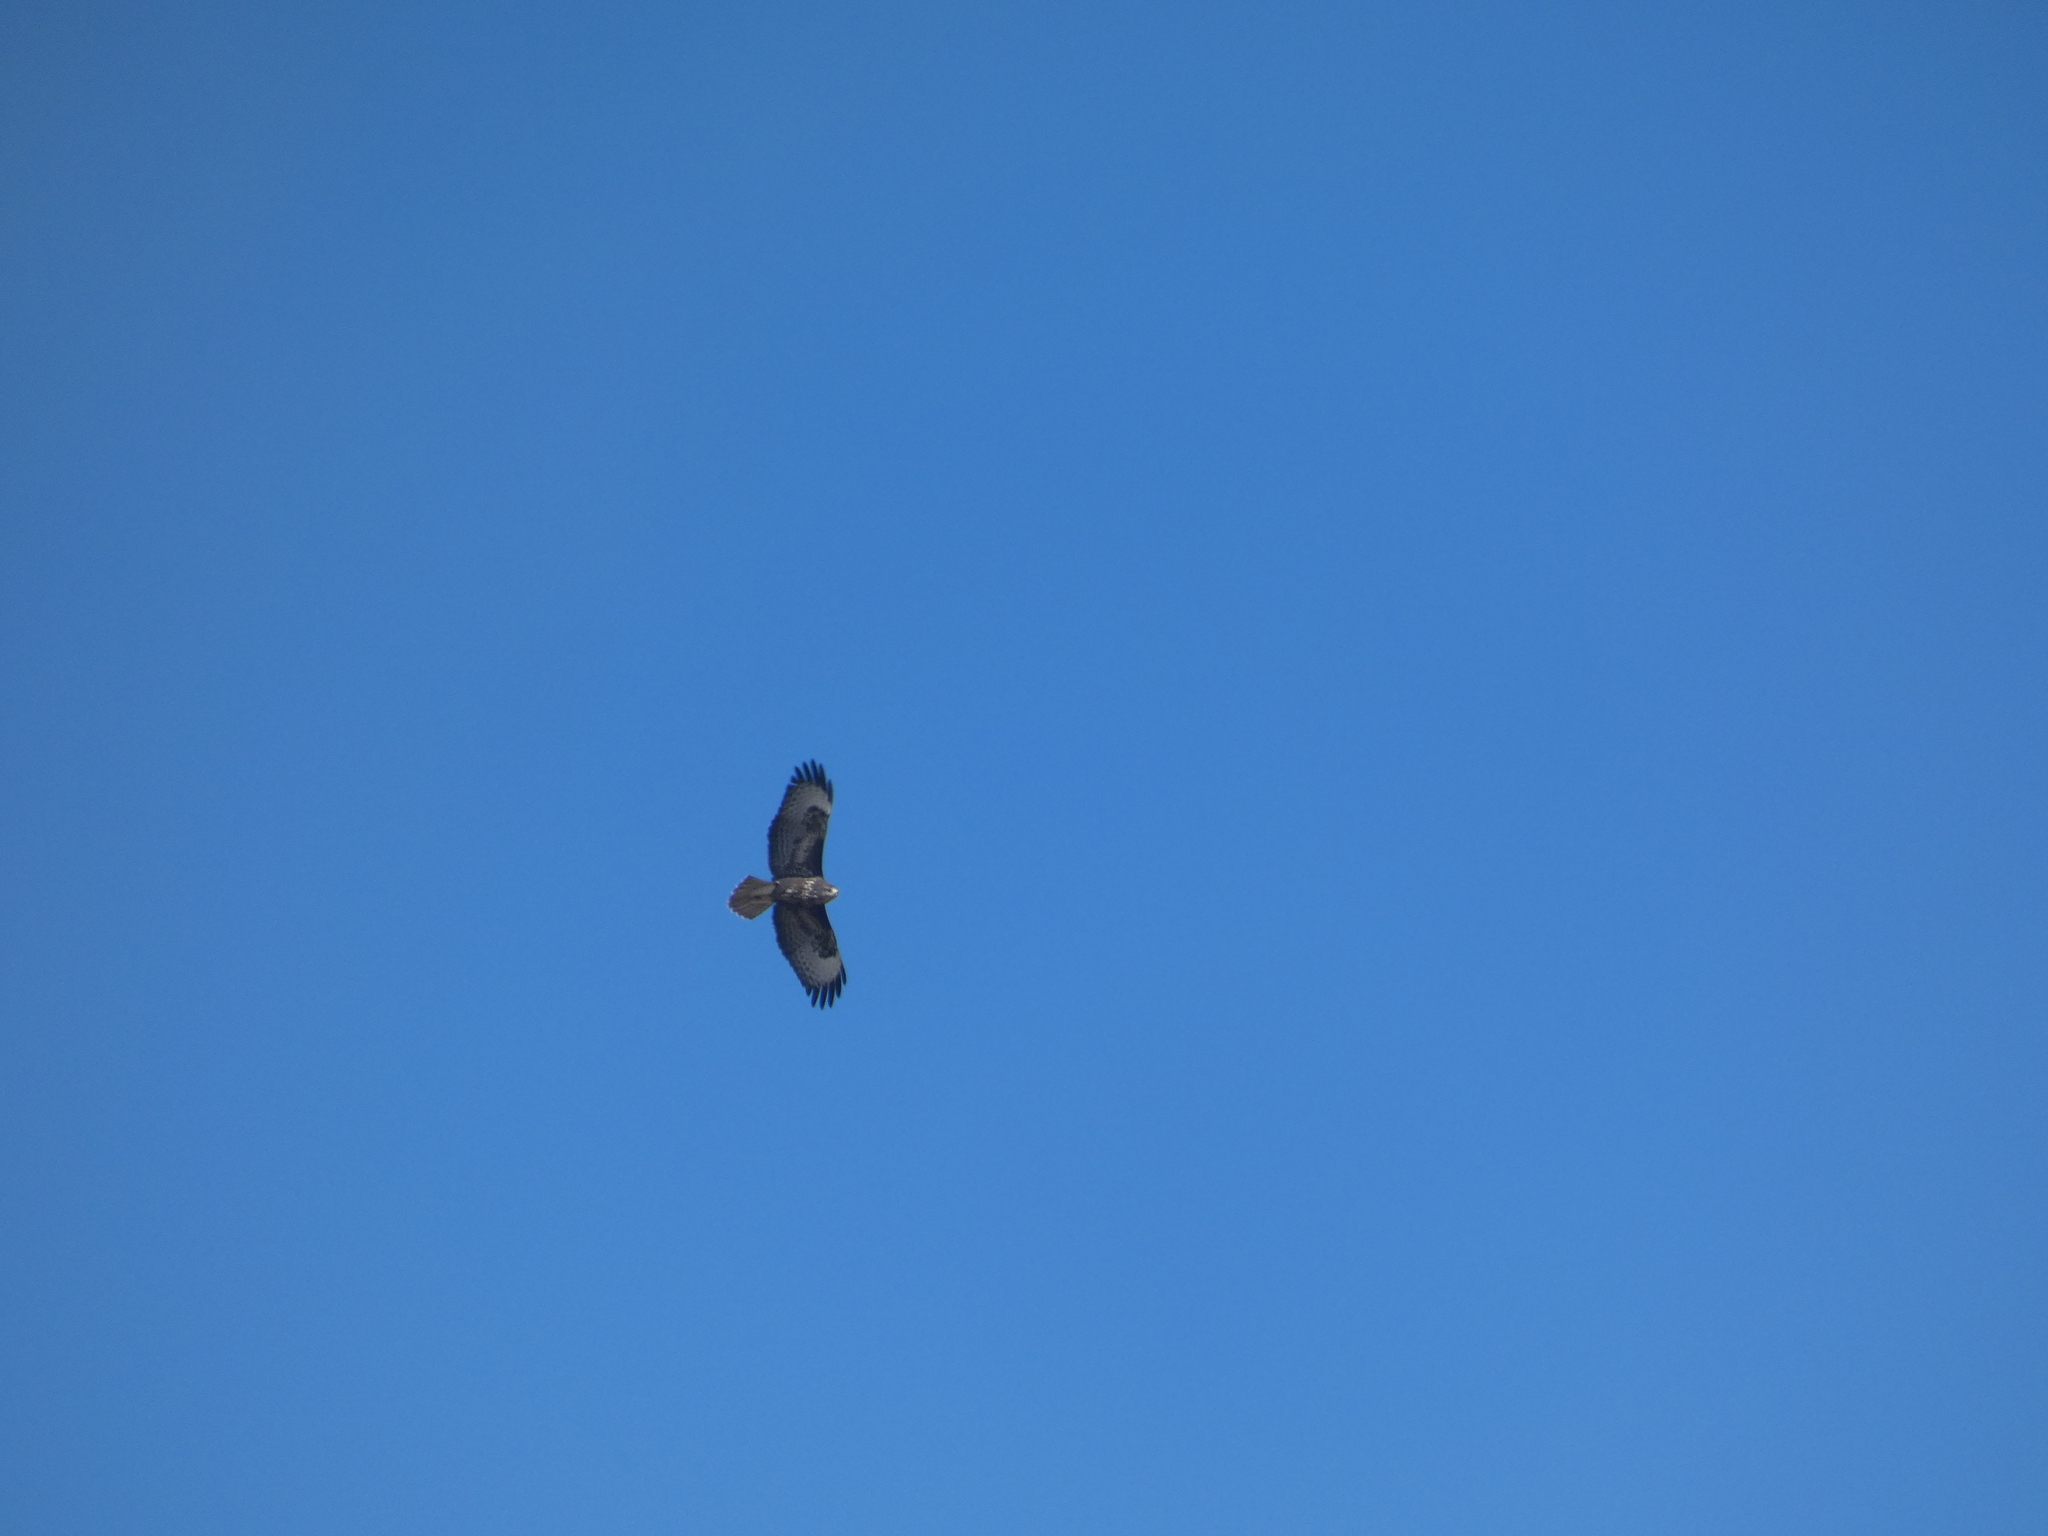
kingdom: Animalia
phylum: Chordata
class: Aves
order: Accipitriformes
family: Accipitridae
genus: Buteo
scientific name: Buteo buteo
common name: Common buzzard
